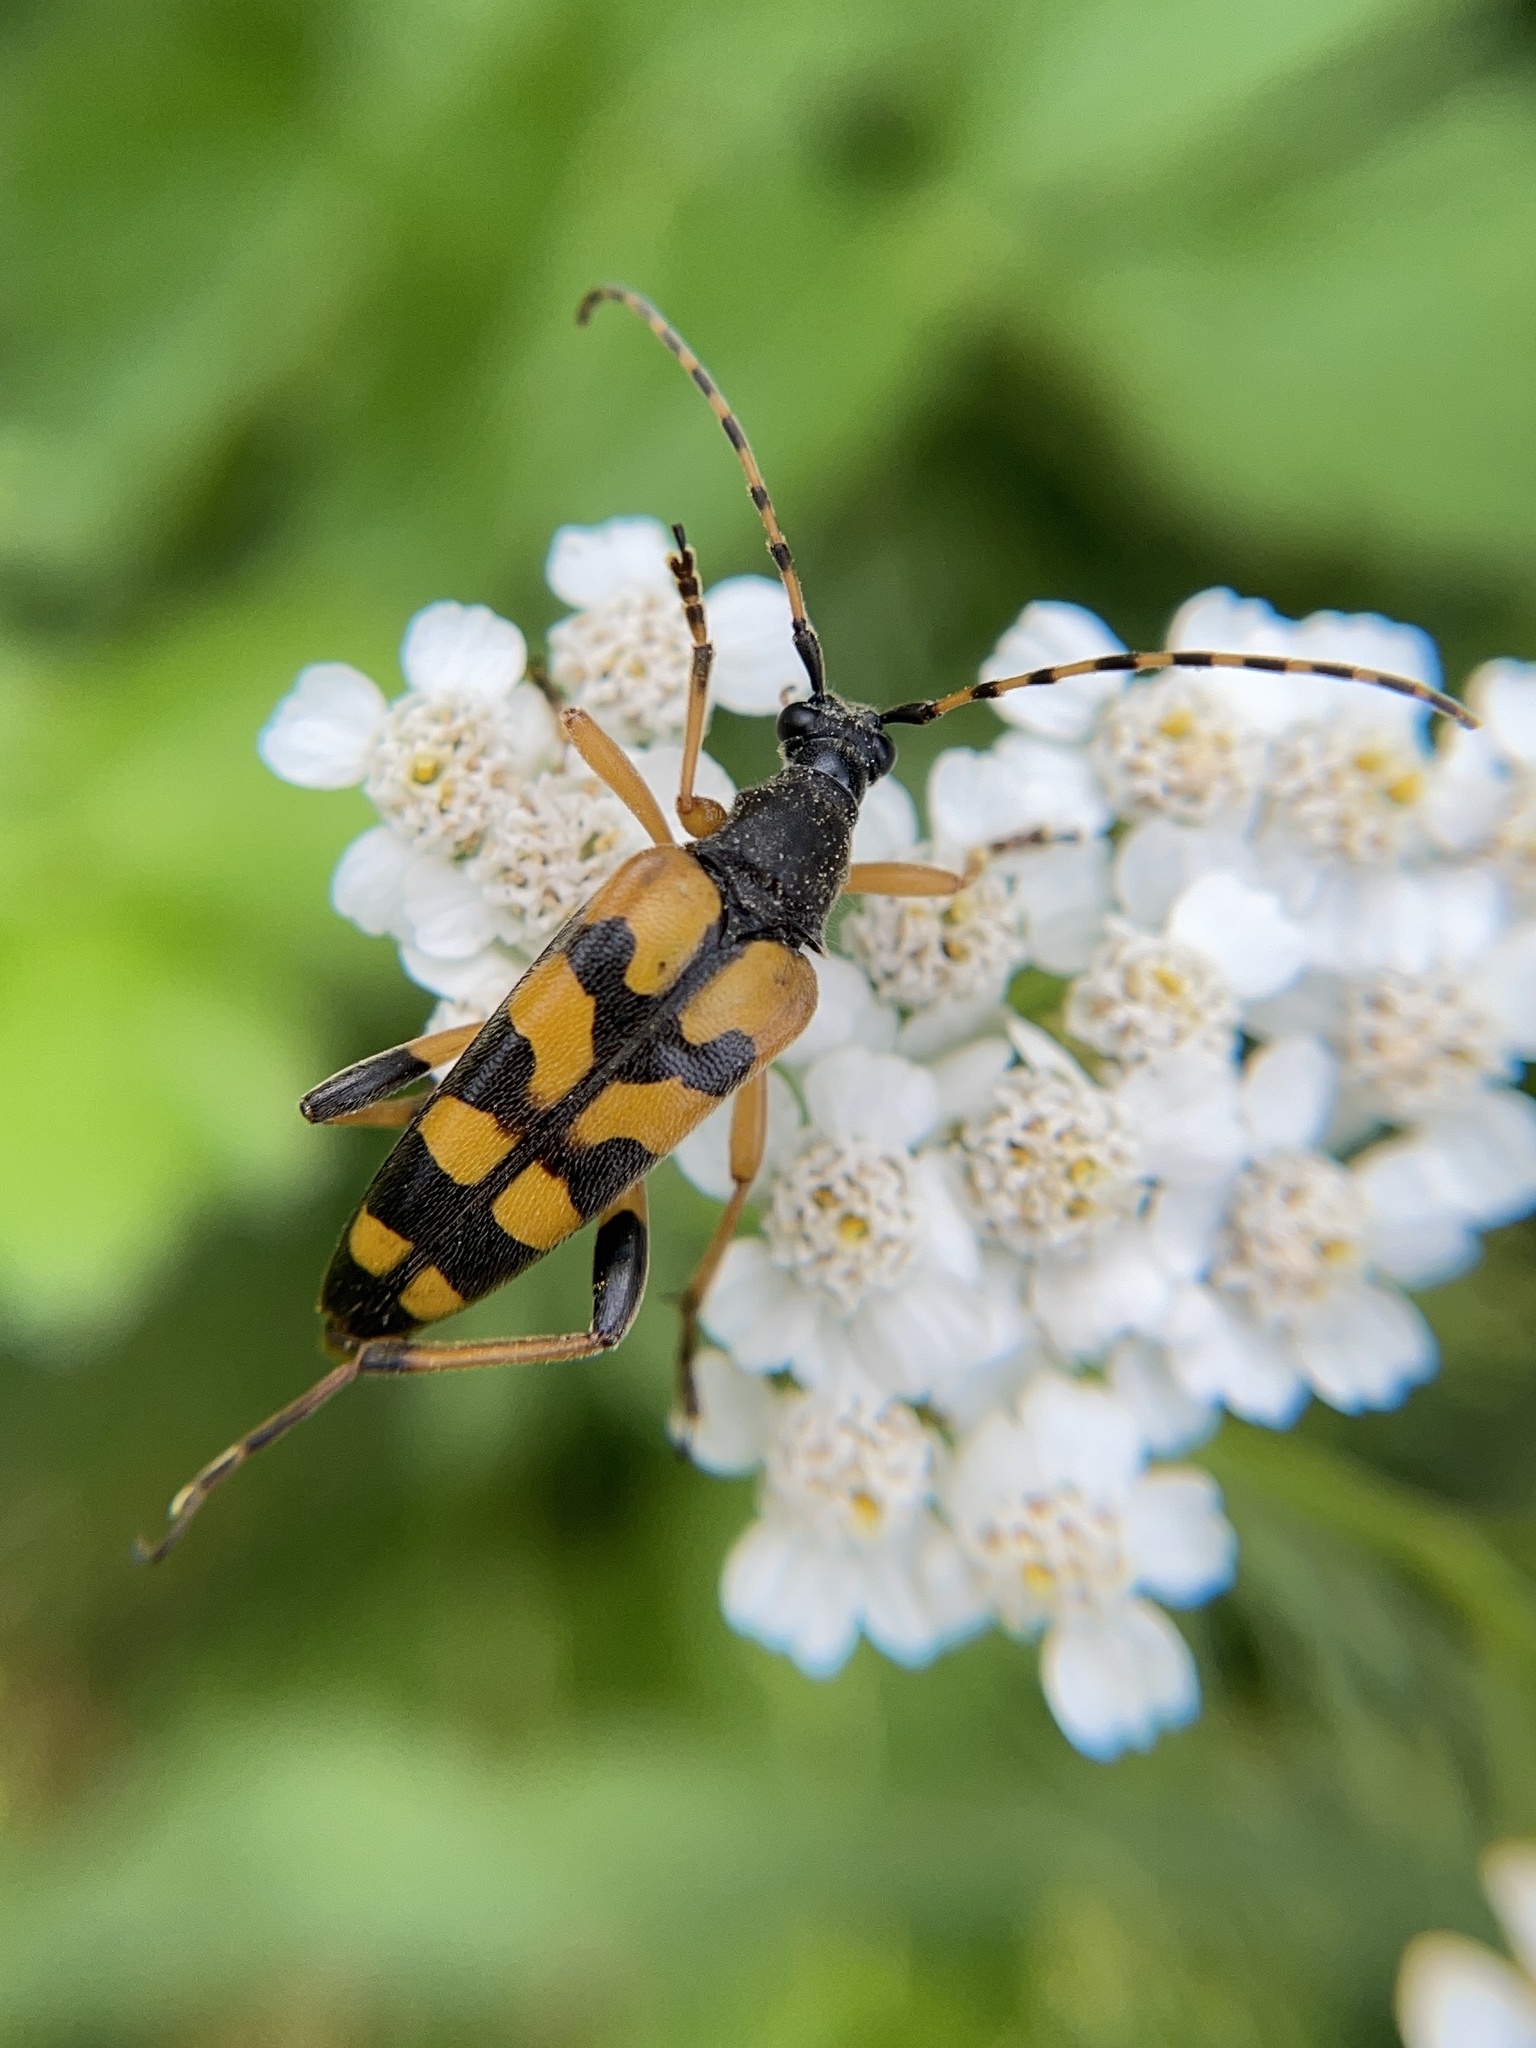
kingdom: Animalia
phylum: Arthropoda
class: Insecta
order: Coleoptera
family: Cerambycidae
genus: Rutpela
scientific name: Rutpela maculata
